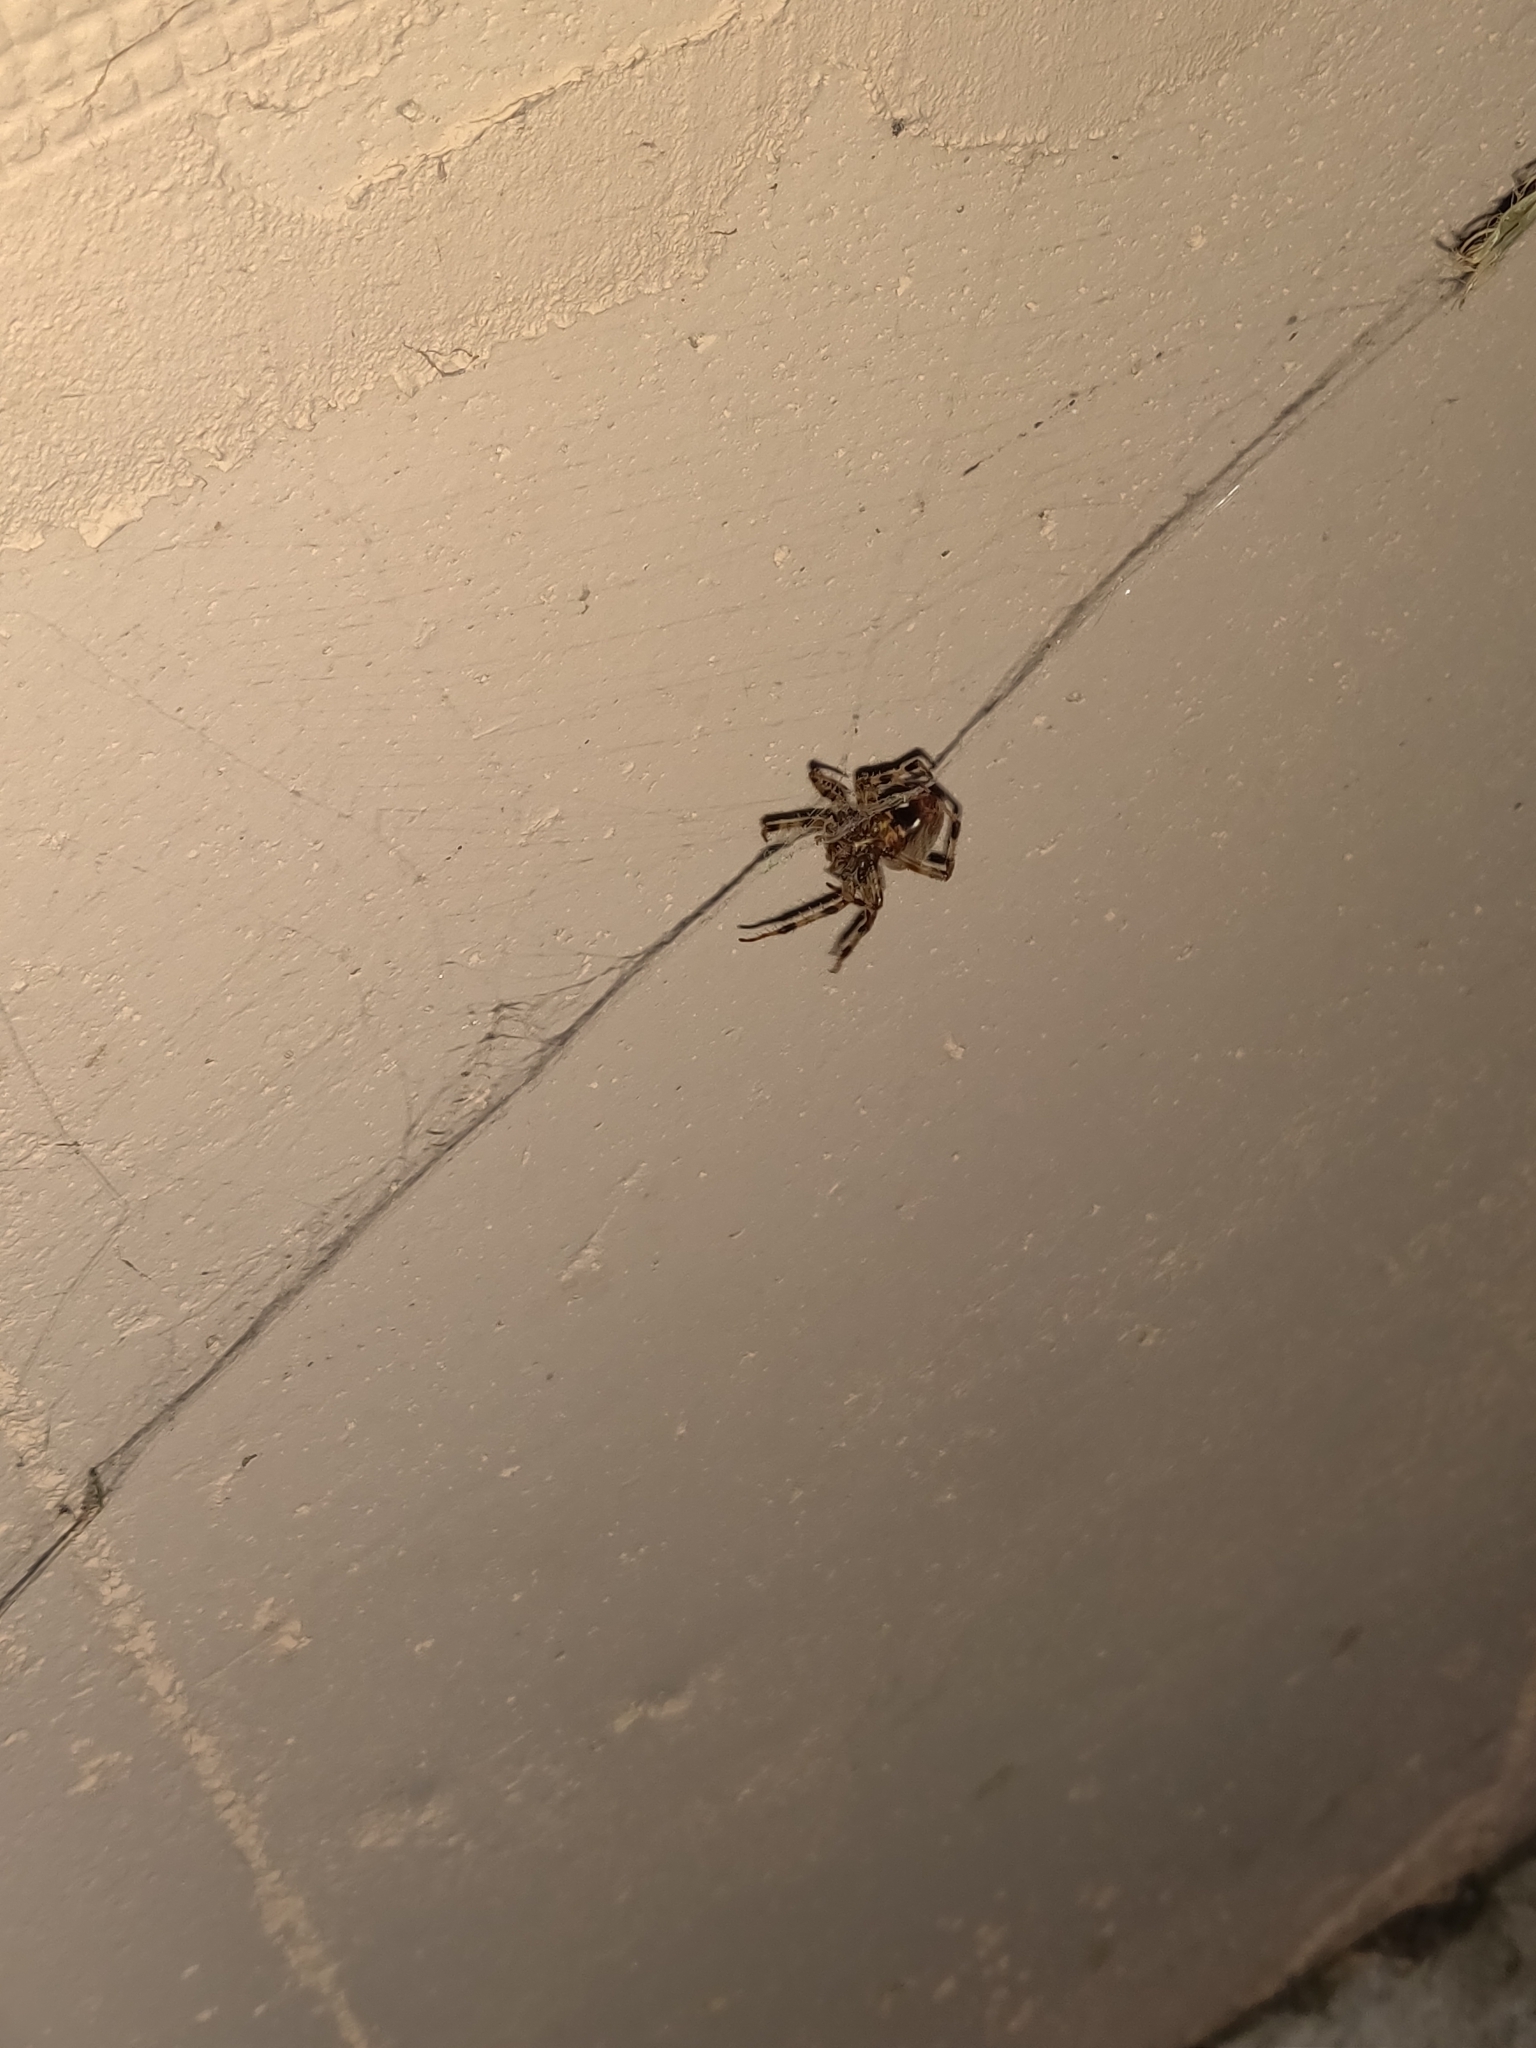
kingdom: Animalia
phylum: Arthropoda
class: Arachnida
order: Araneae
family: Araneidae
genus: Neoscona
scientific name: Neoscona
